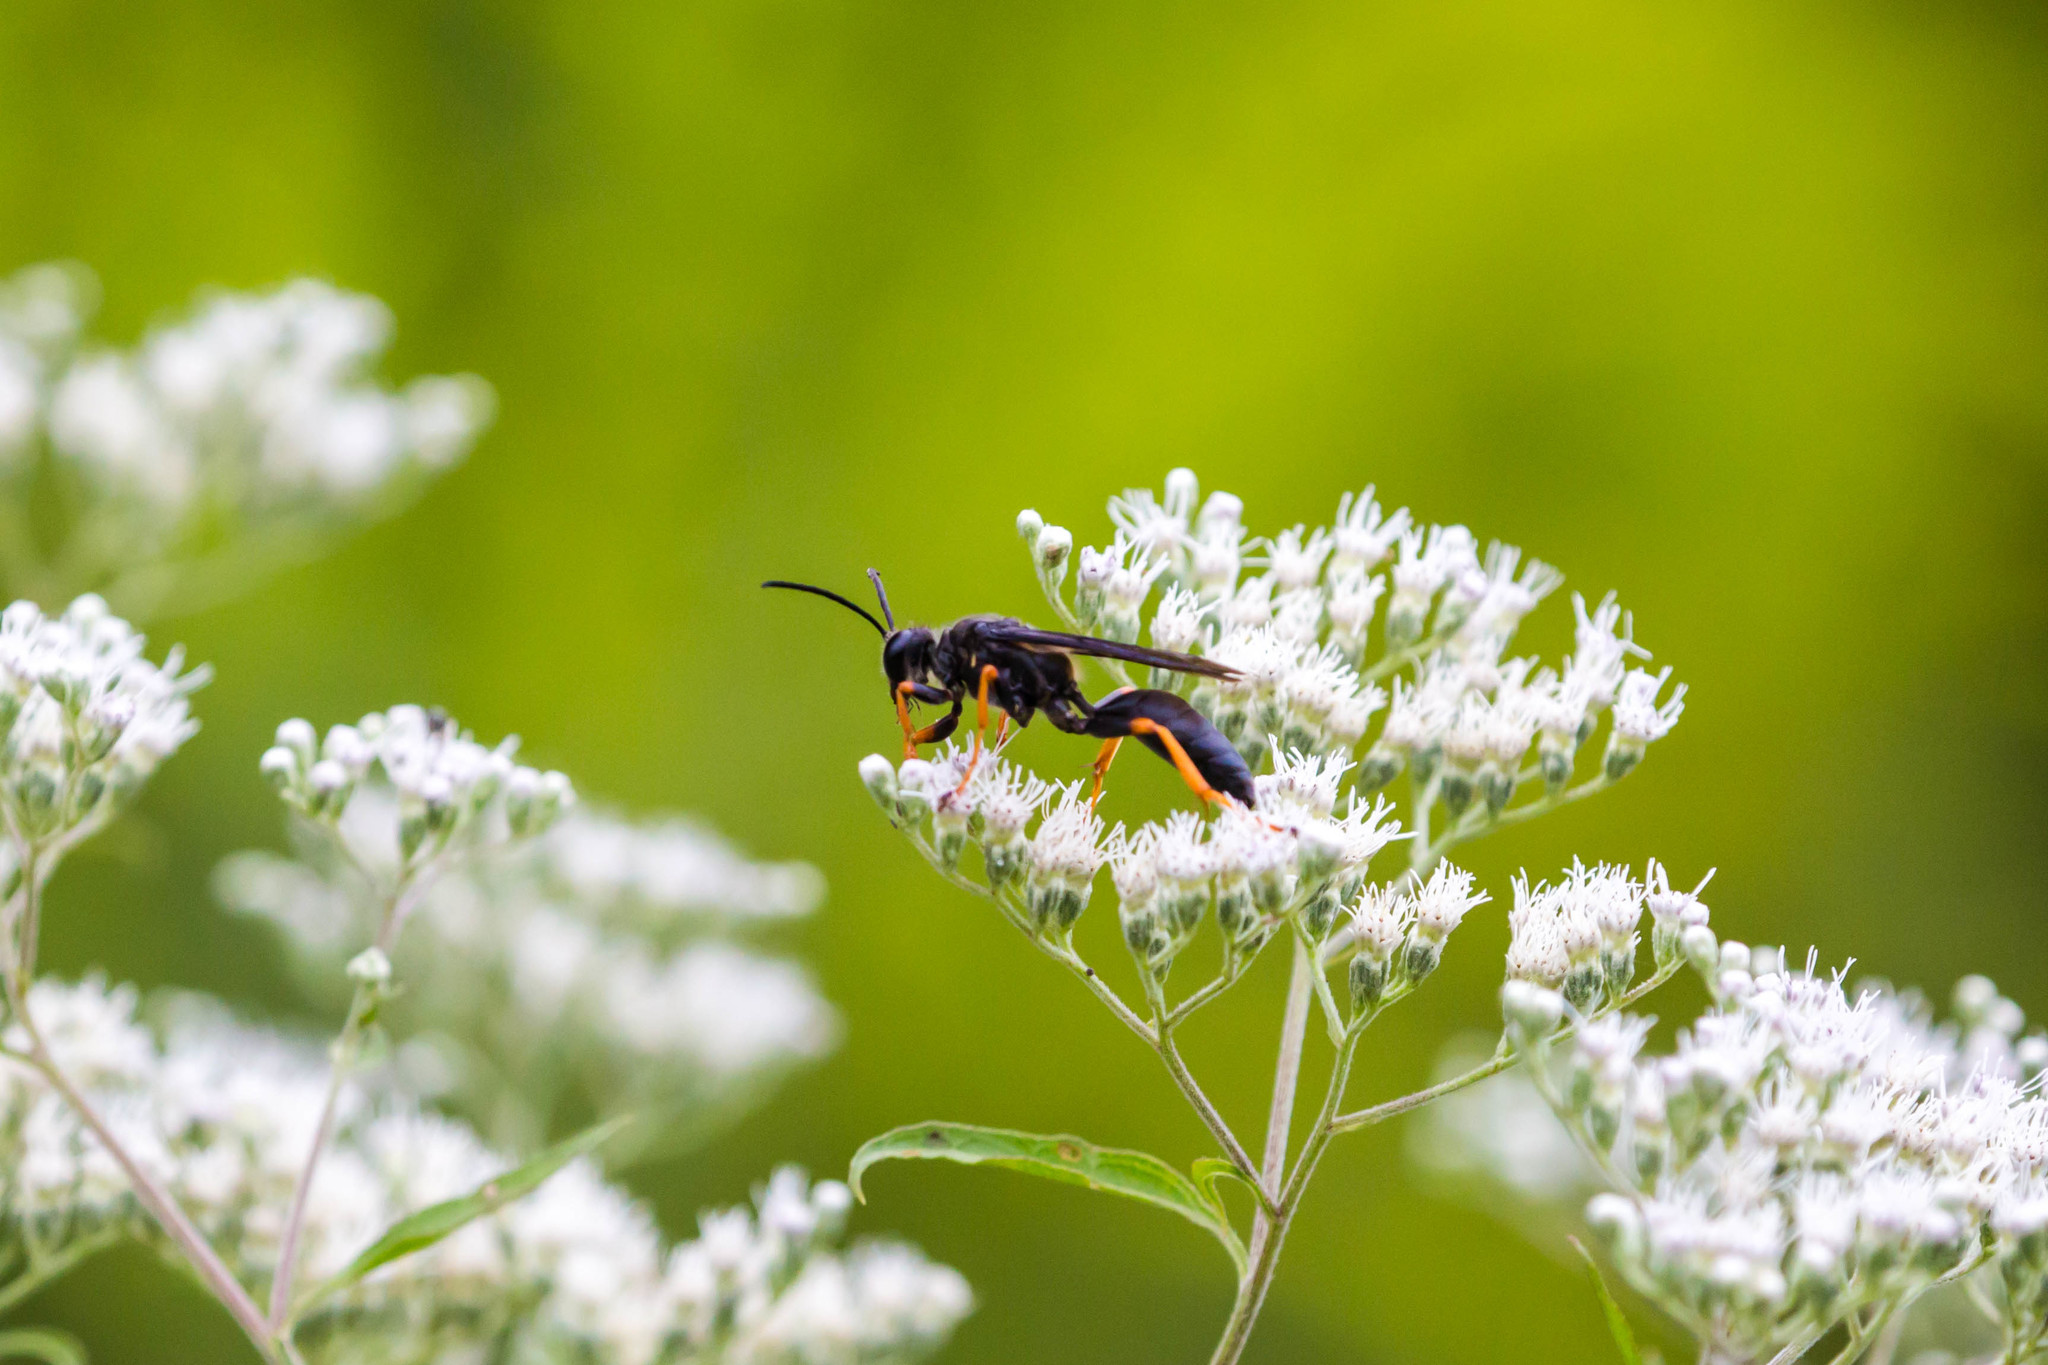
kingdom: Animalia
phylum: Arthropoda
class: Insecta
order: Hymenoptera
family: Sphecidae
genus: Sphex
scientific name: Sphex nudus
